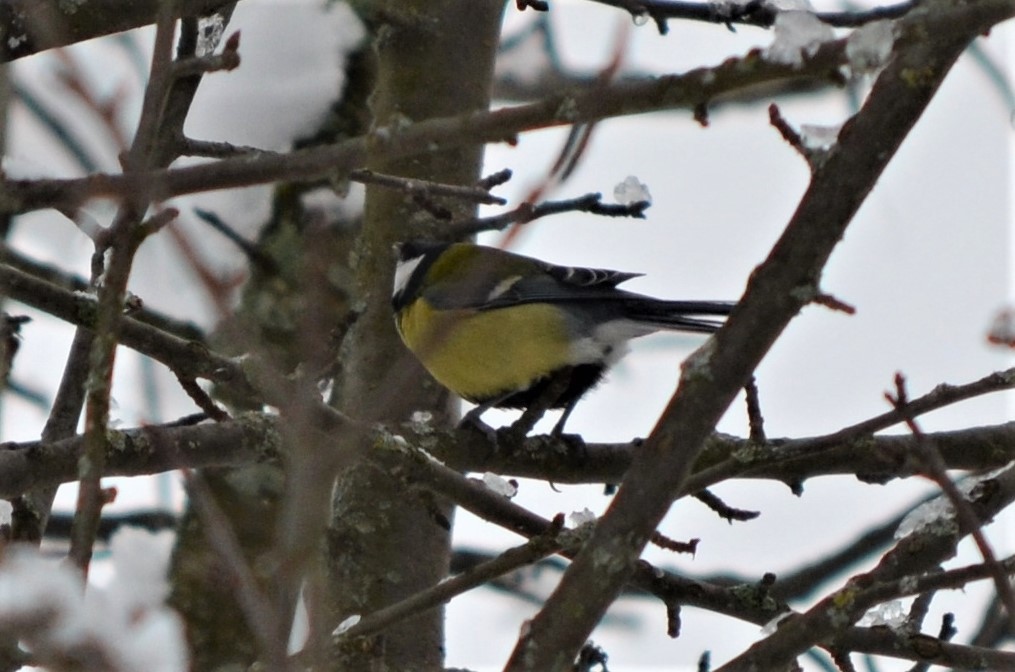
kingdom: Animalia
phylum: Chordata
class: Aves
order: Passeriformes
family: Paridae
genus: Parus
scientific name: Parus major
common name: Great tit
